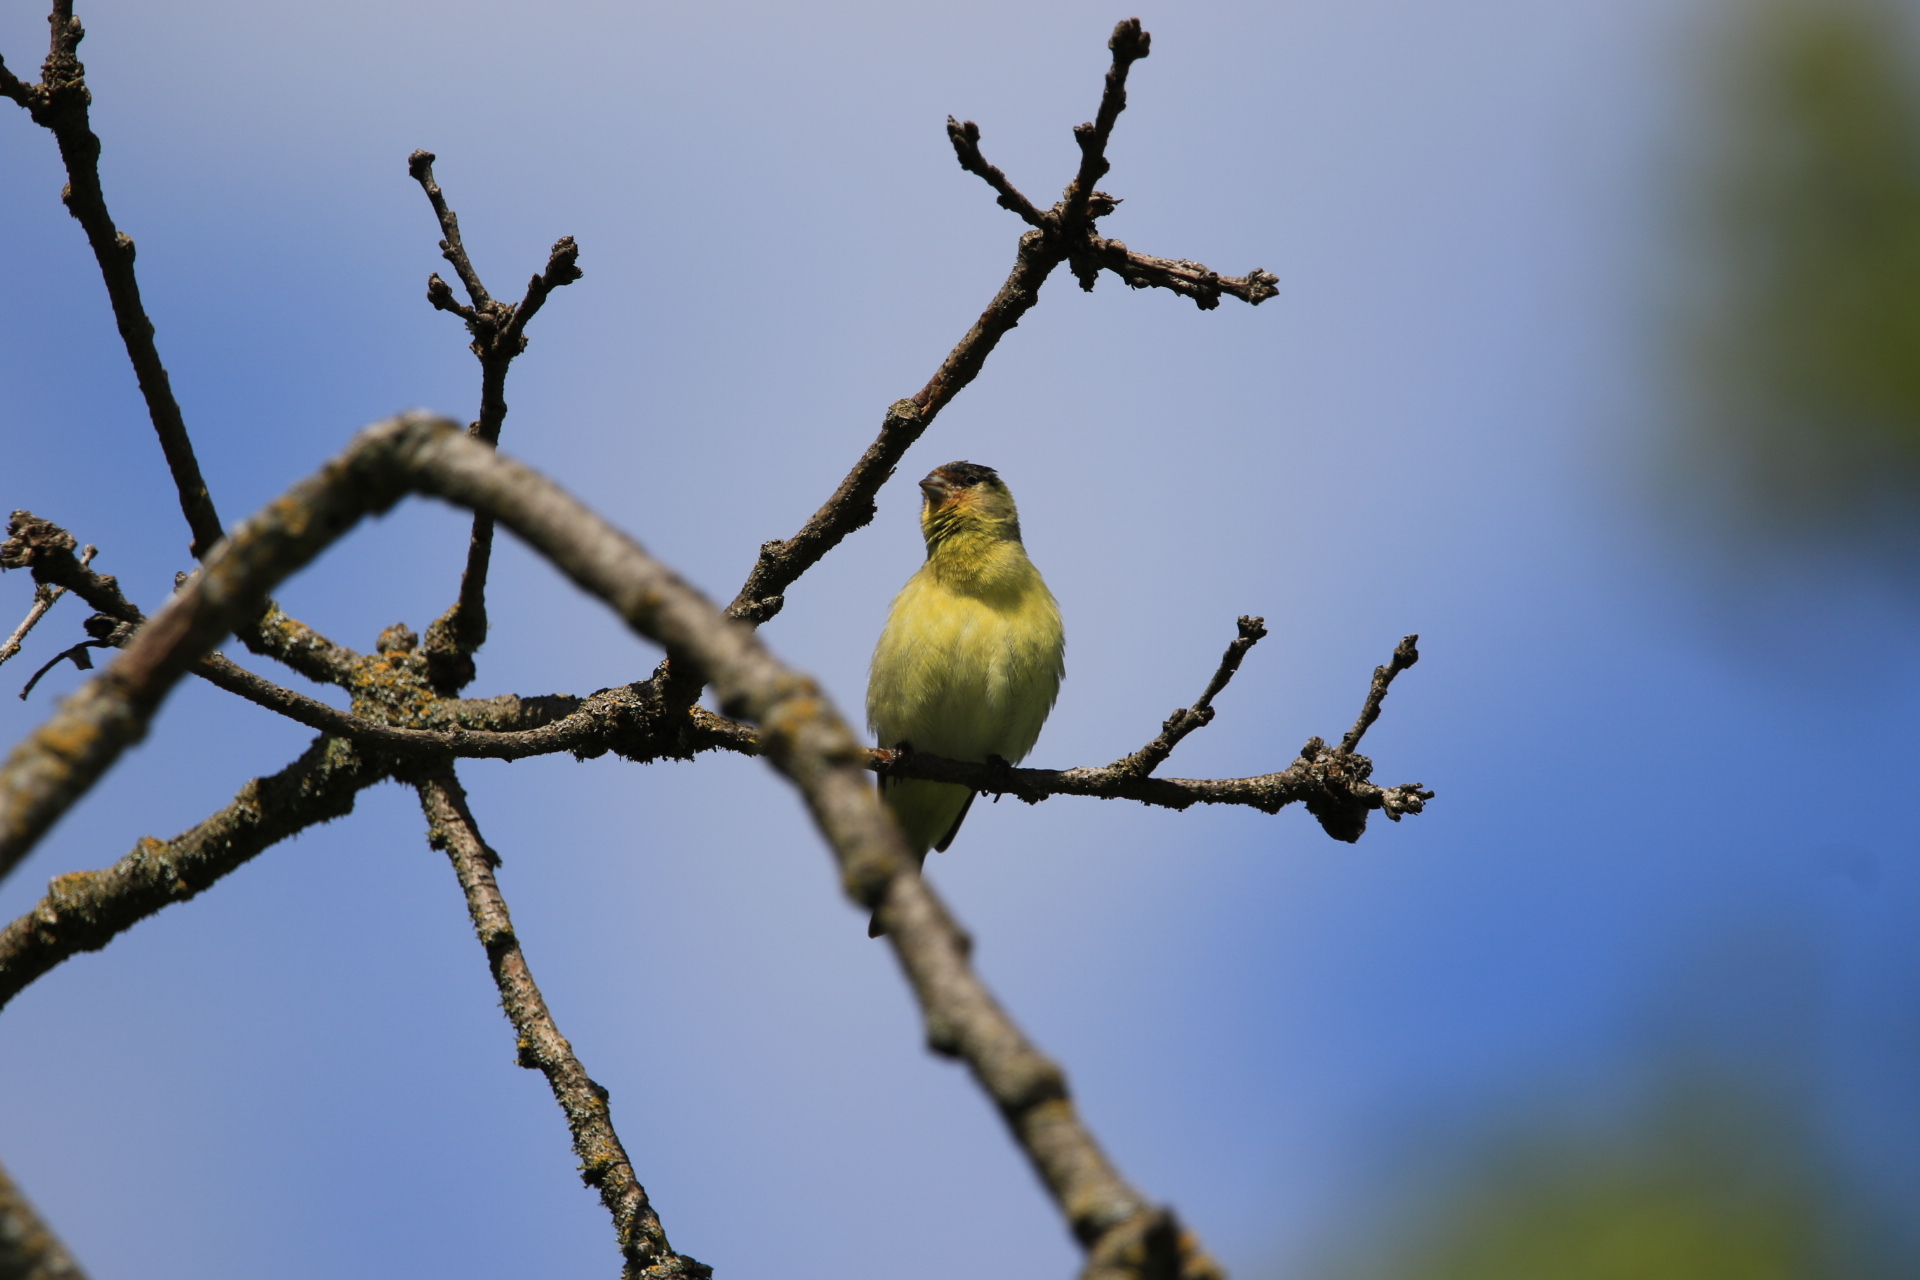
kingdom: Animalia
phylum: Chordata
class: Aves
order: Passeriformes
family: Fringillidae
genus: Spinus
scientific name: Spinus psaltria
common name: Lesser goldfinch
